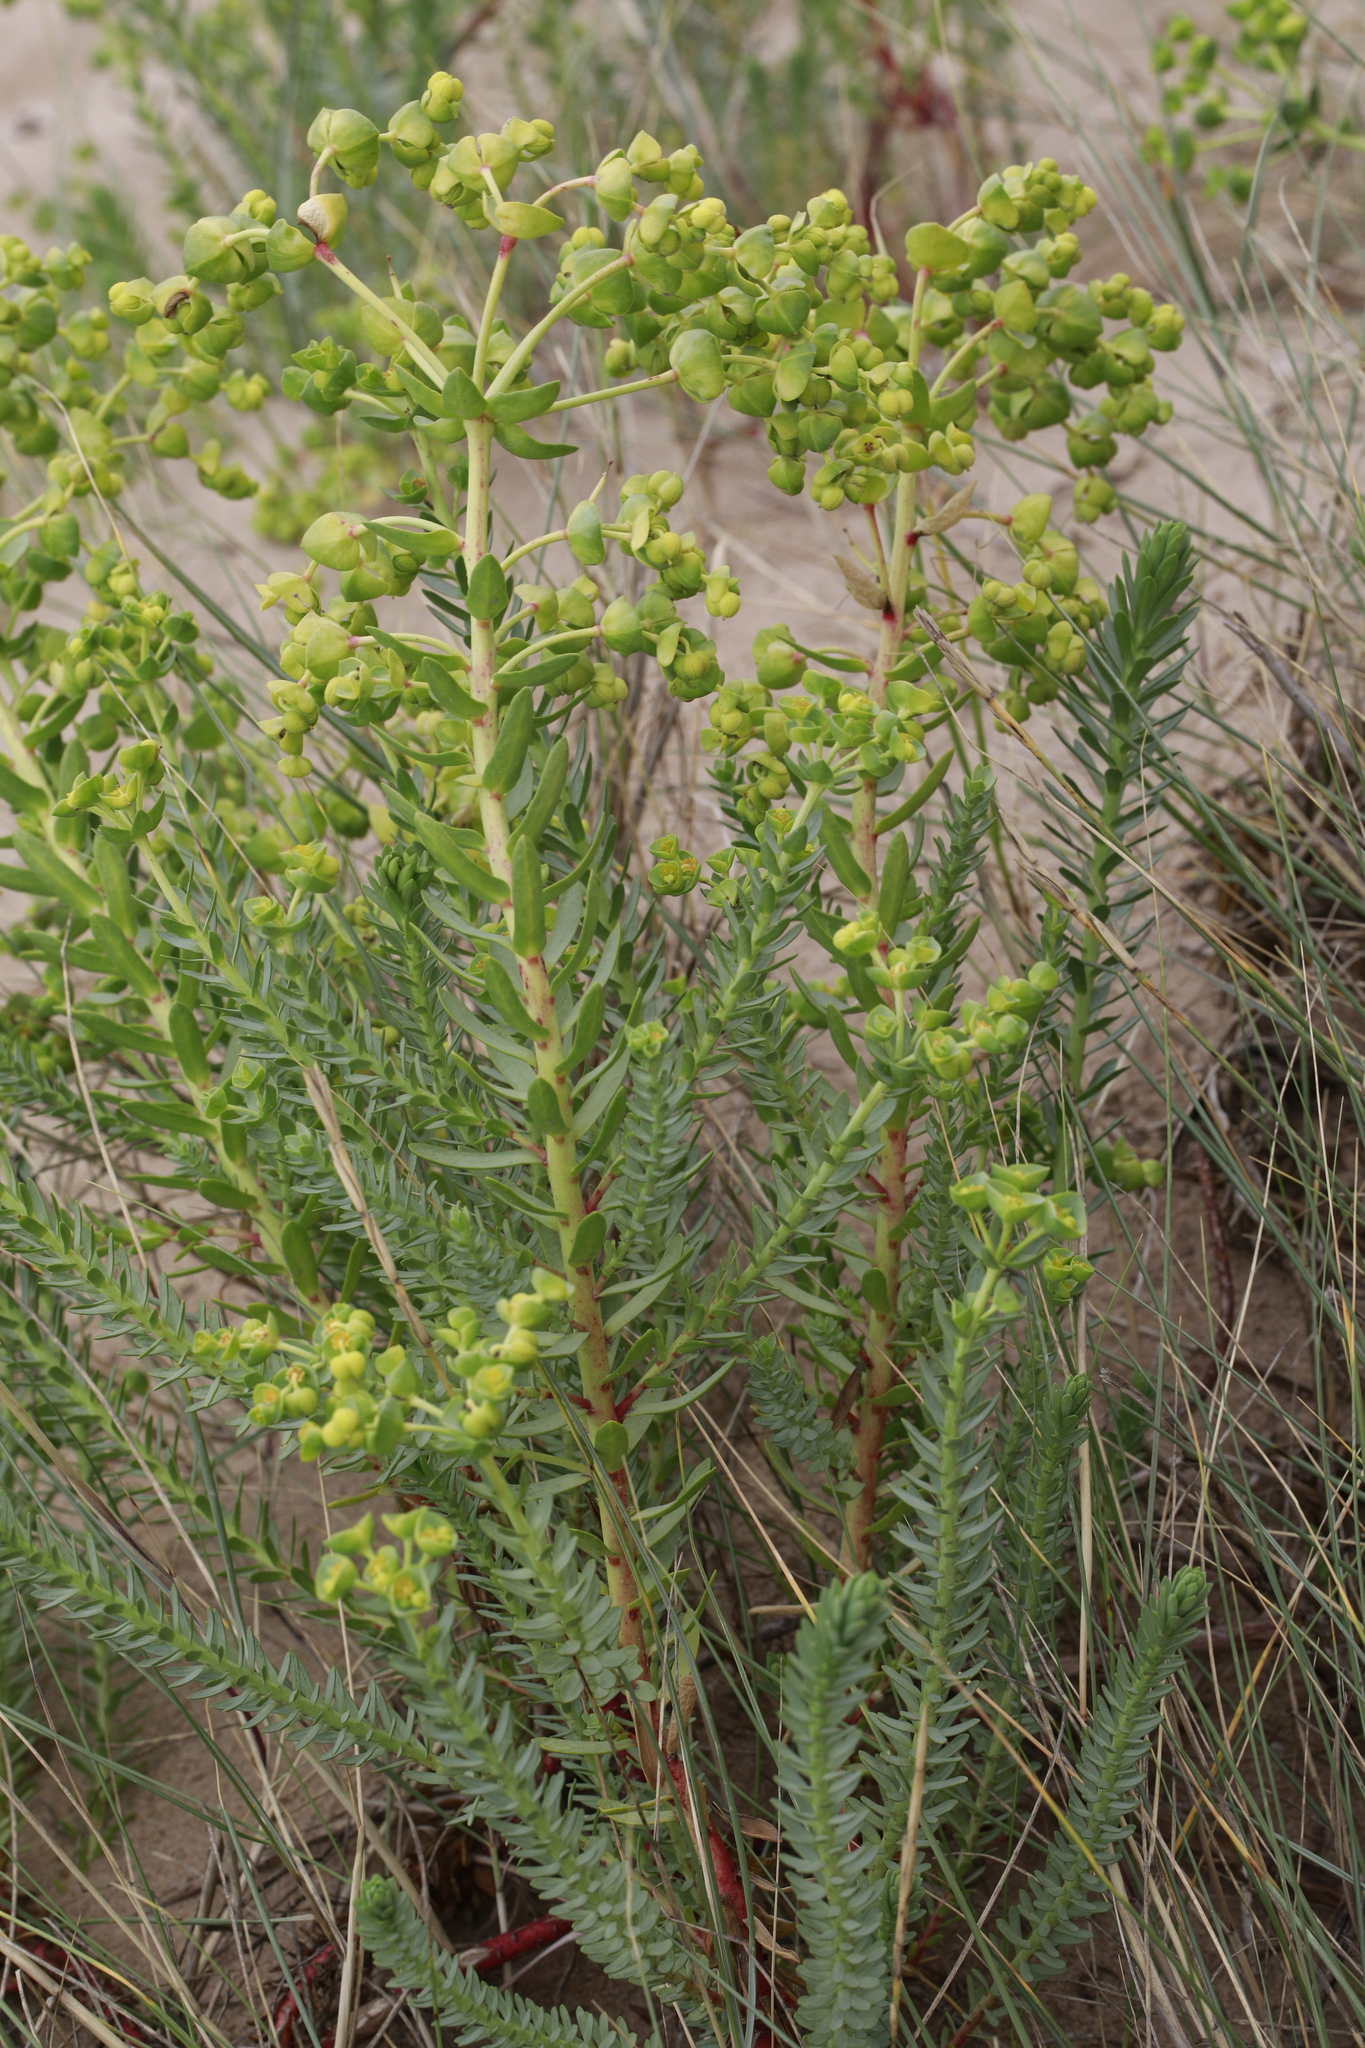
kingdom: Plantae
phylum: Tracheophyta
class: Magnoliopsida
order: Malpighiales
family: Euphorbiaceae
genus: Euphorbia
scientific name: Euphorbia paralias
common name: Sea spurge
